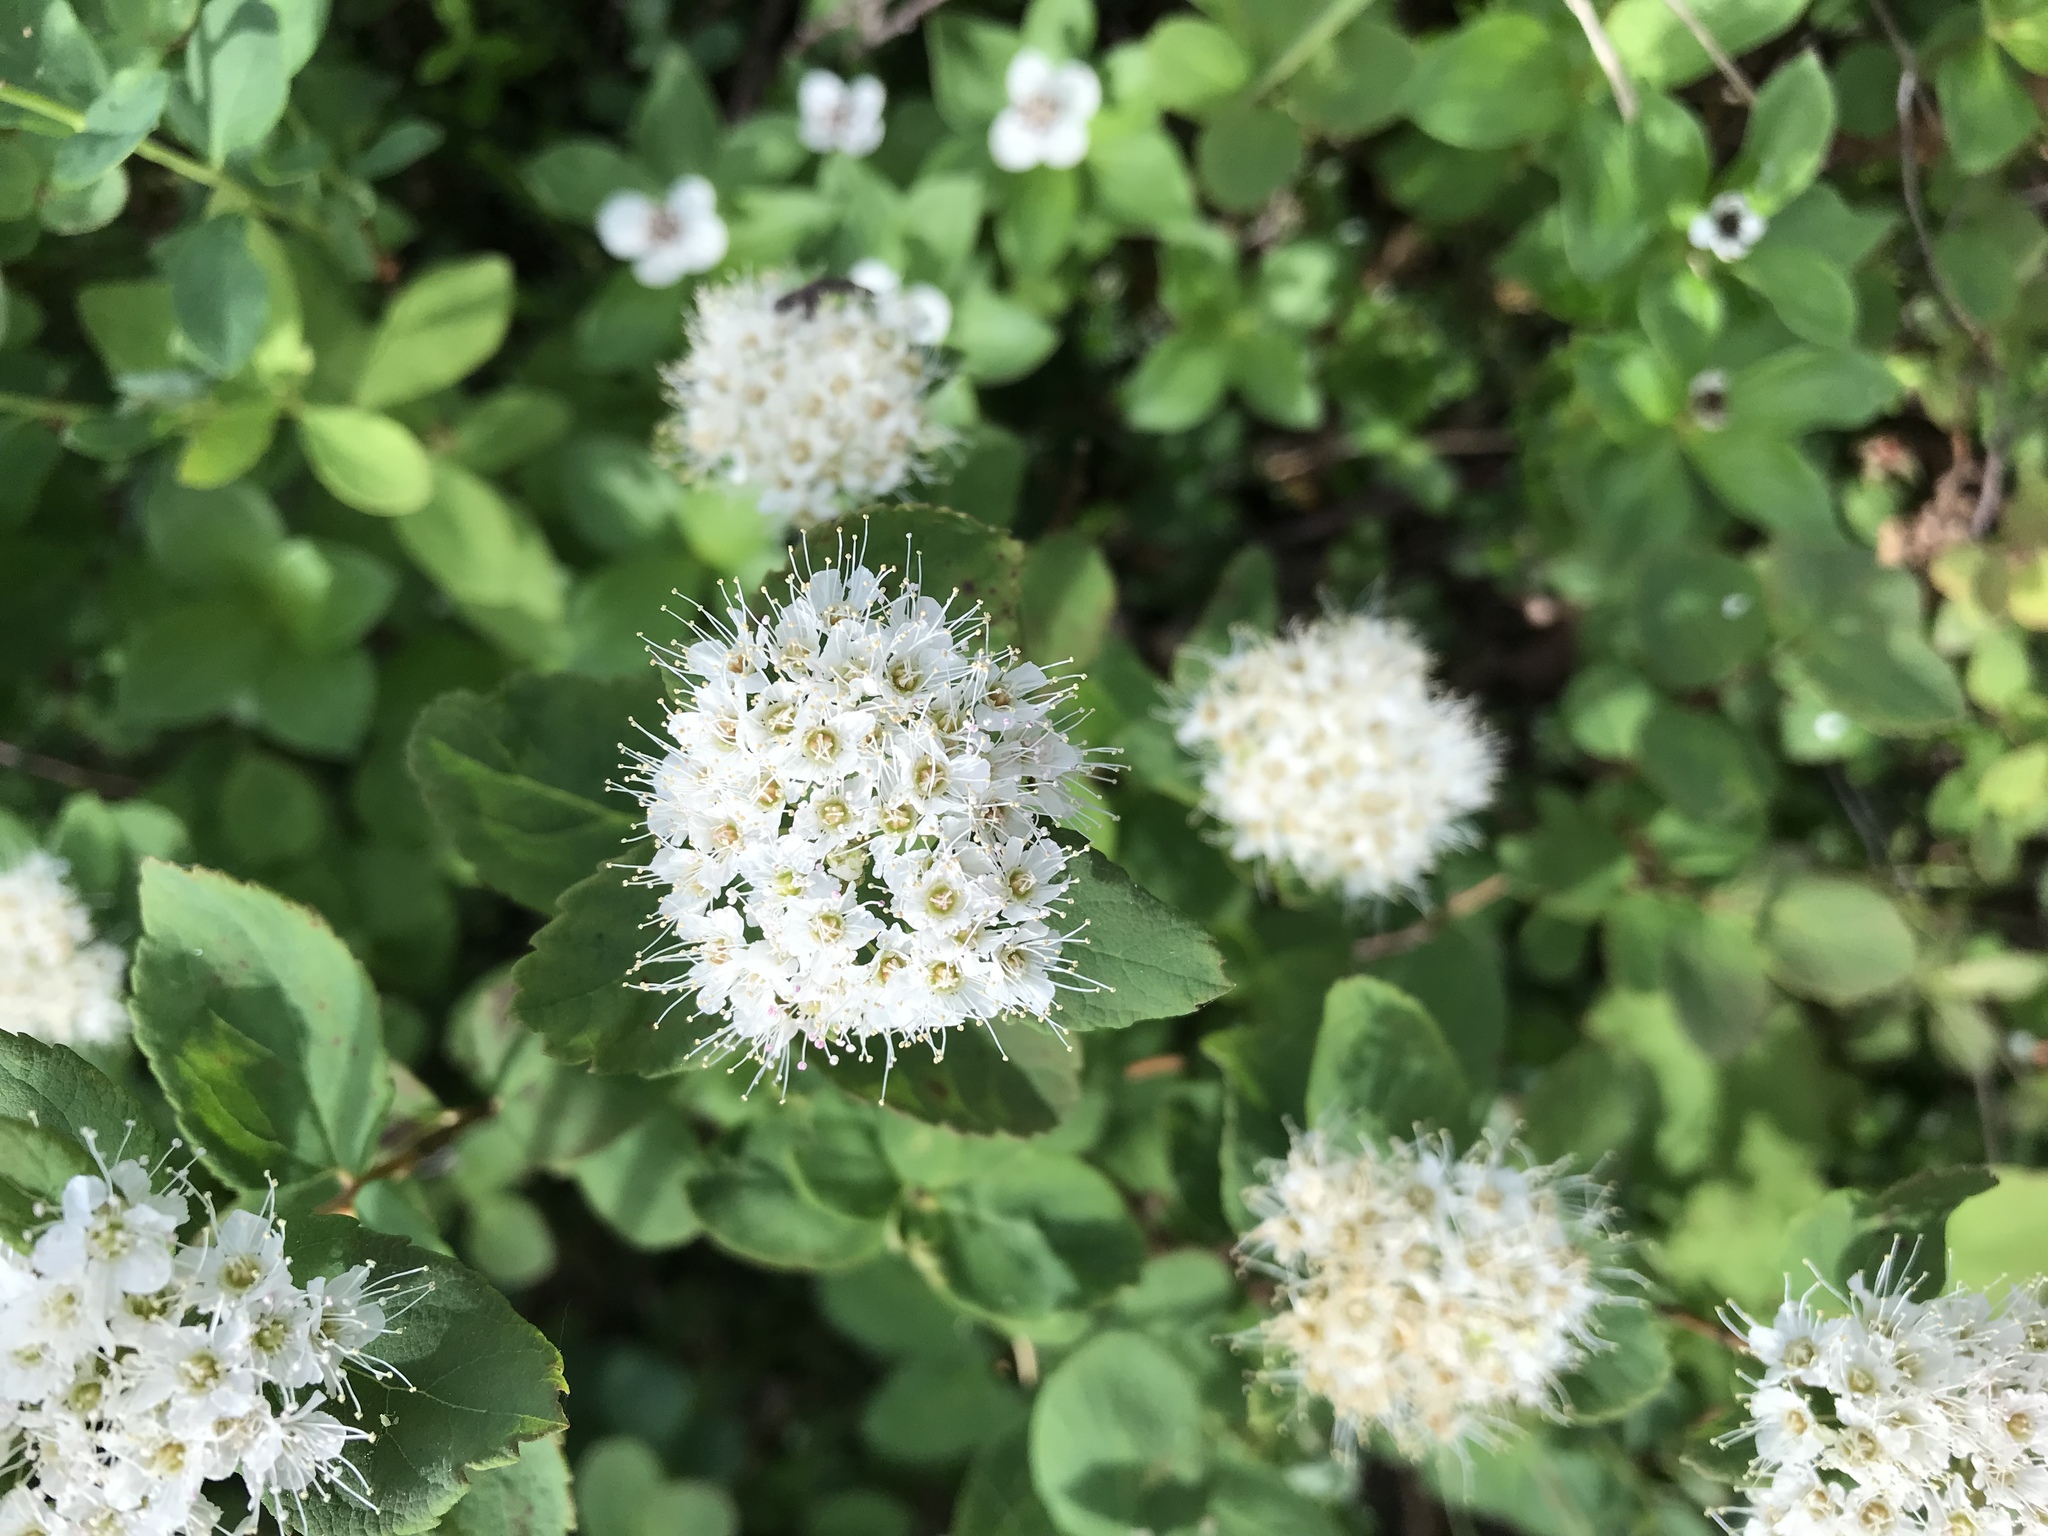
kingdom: Plantae
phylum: Tracheophyta
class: Magnoliopsida
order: Rosales
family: Rosaceae
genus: Spiraea
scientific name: Spiraea stevenii
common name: Steven's meadowsweet
